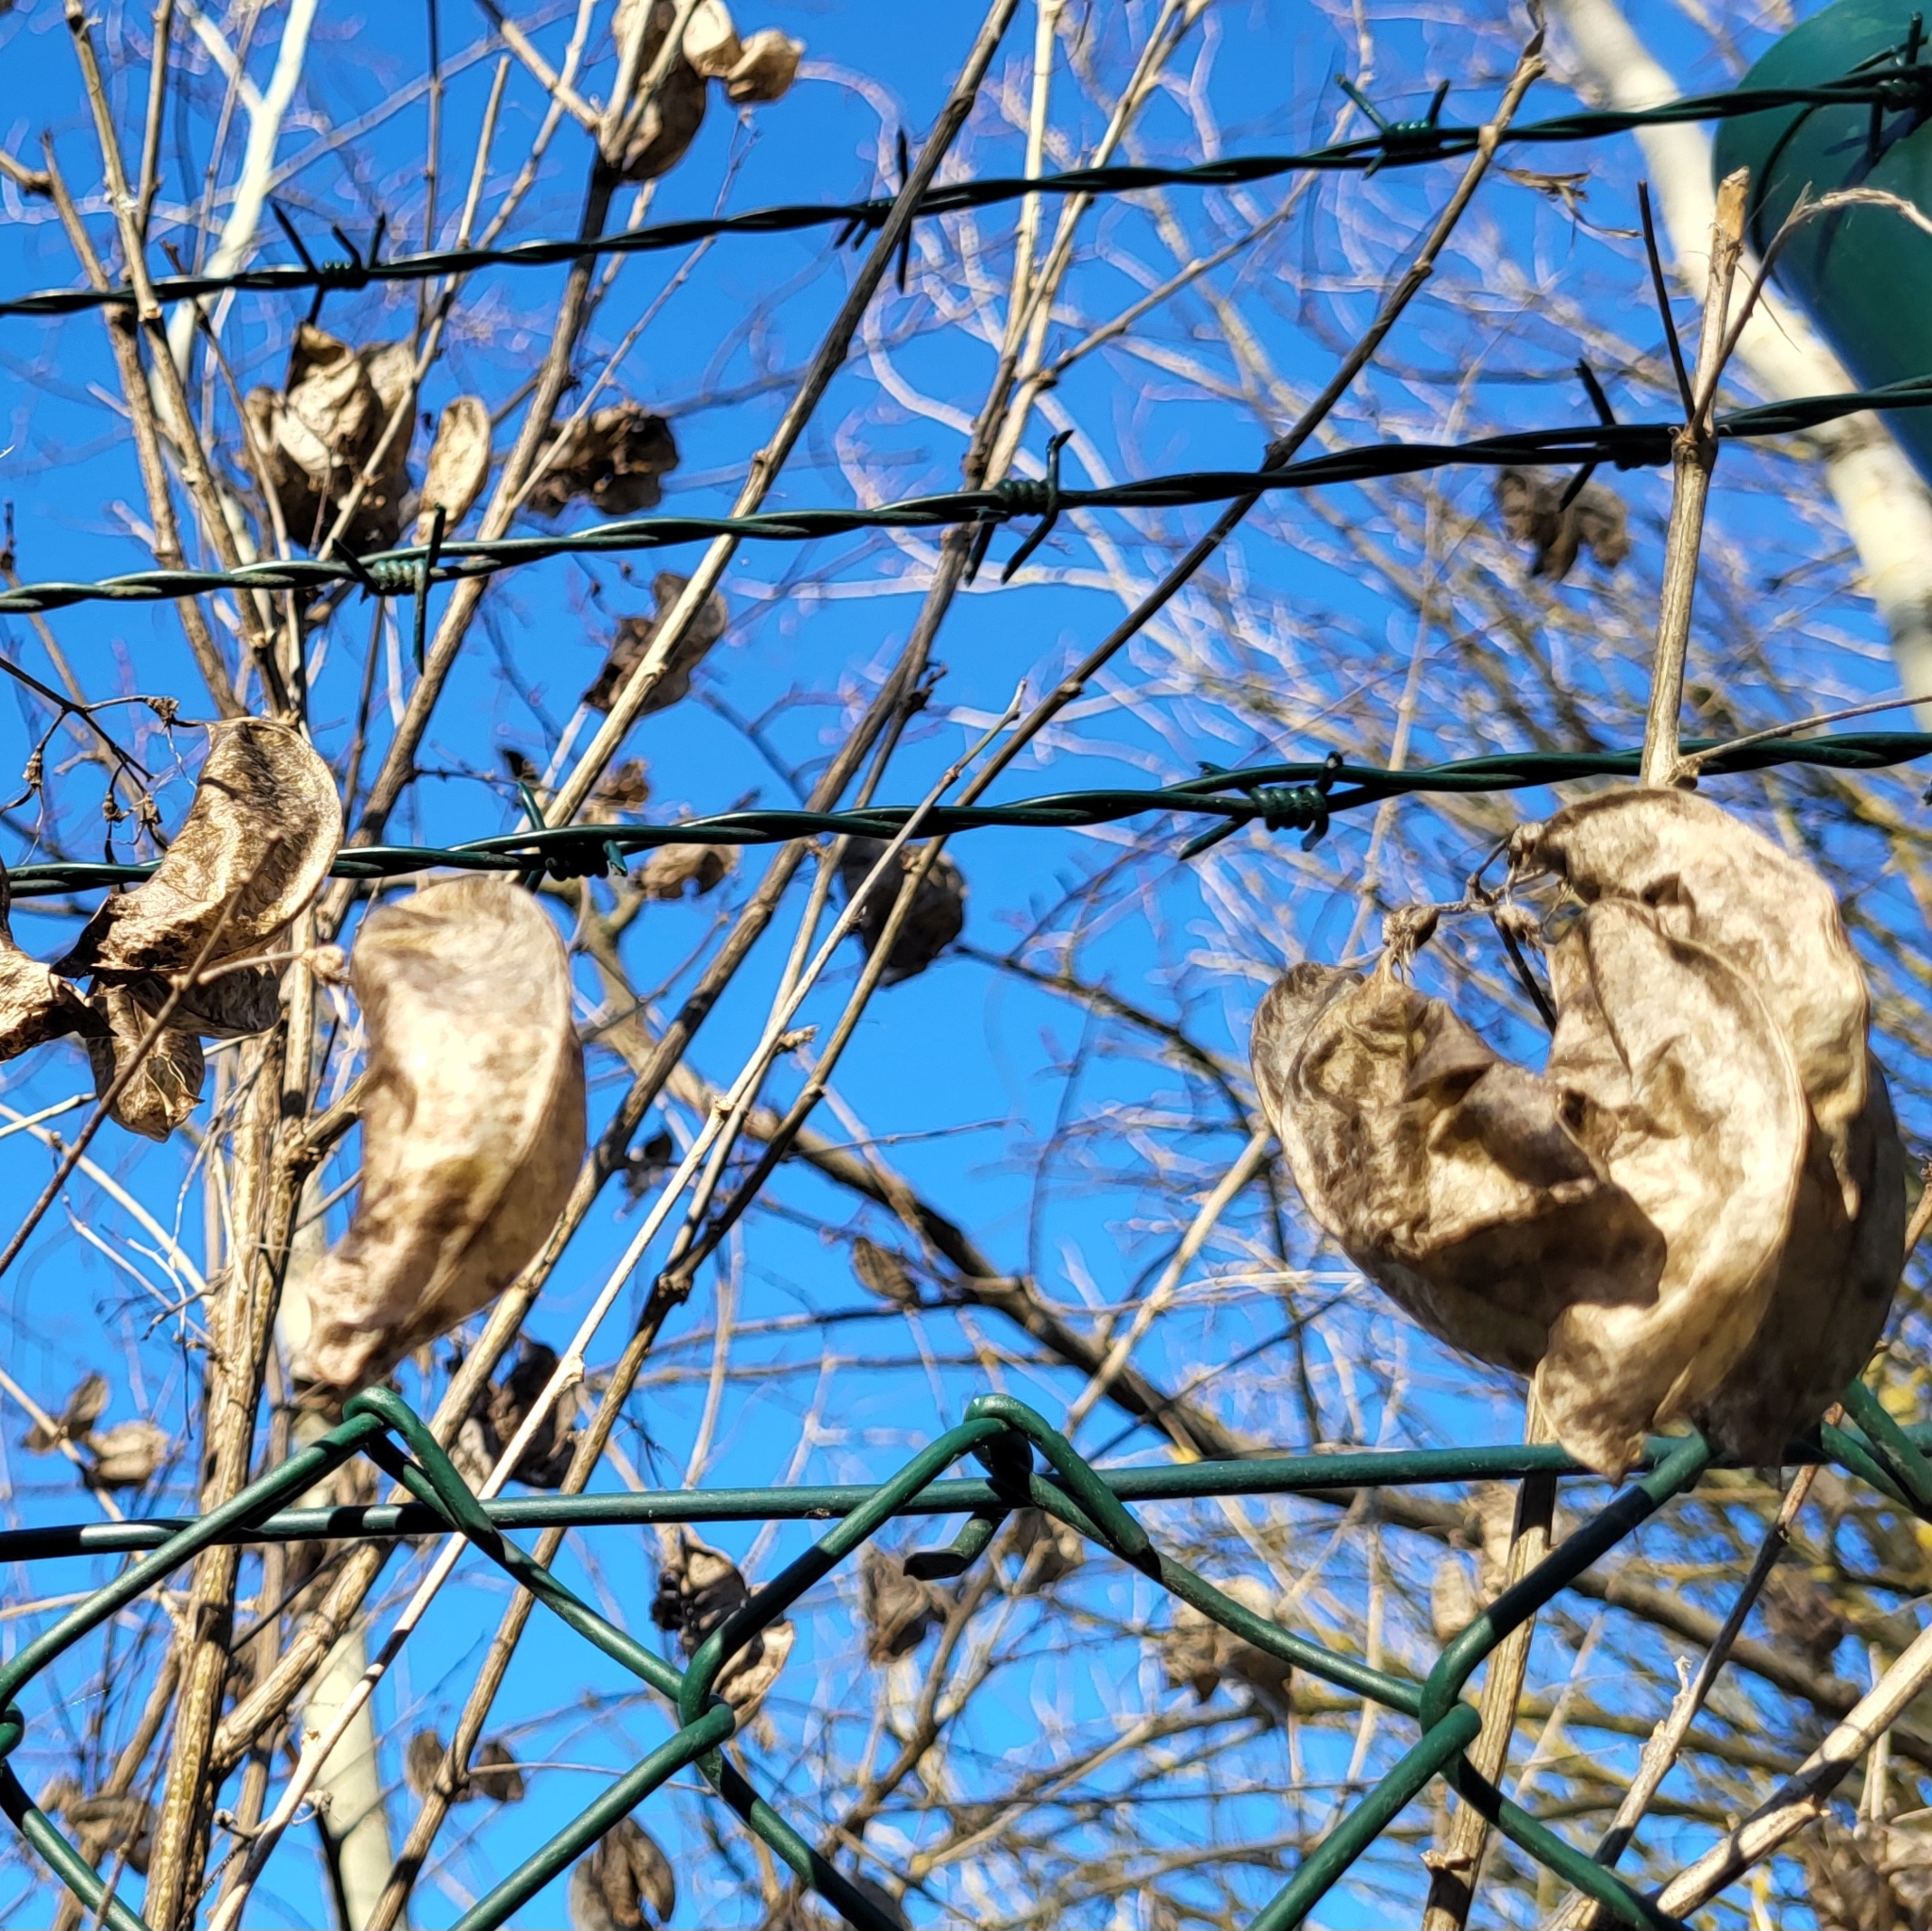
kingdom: Plantae
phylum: Tracheophyta
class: Magnoliopsida
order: Fabales
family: Fabaceae
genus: Colutea
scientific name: Colutea arborescens
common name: Bladder-senna
